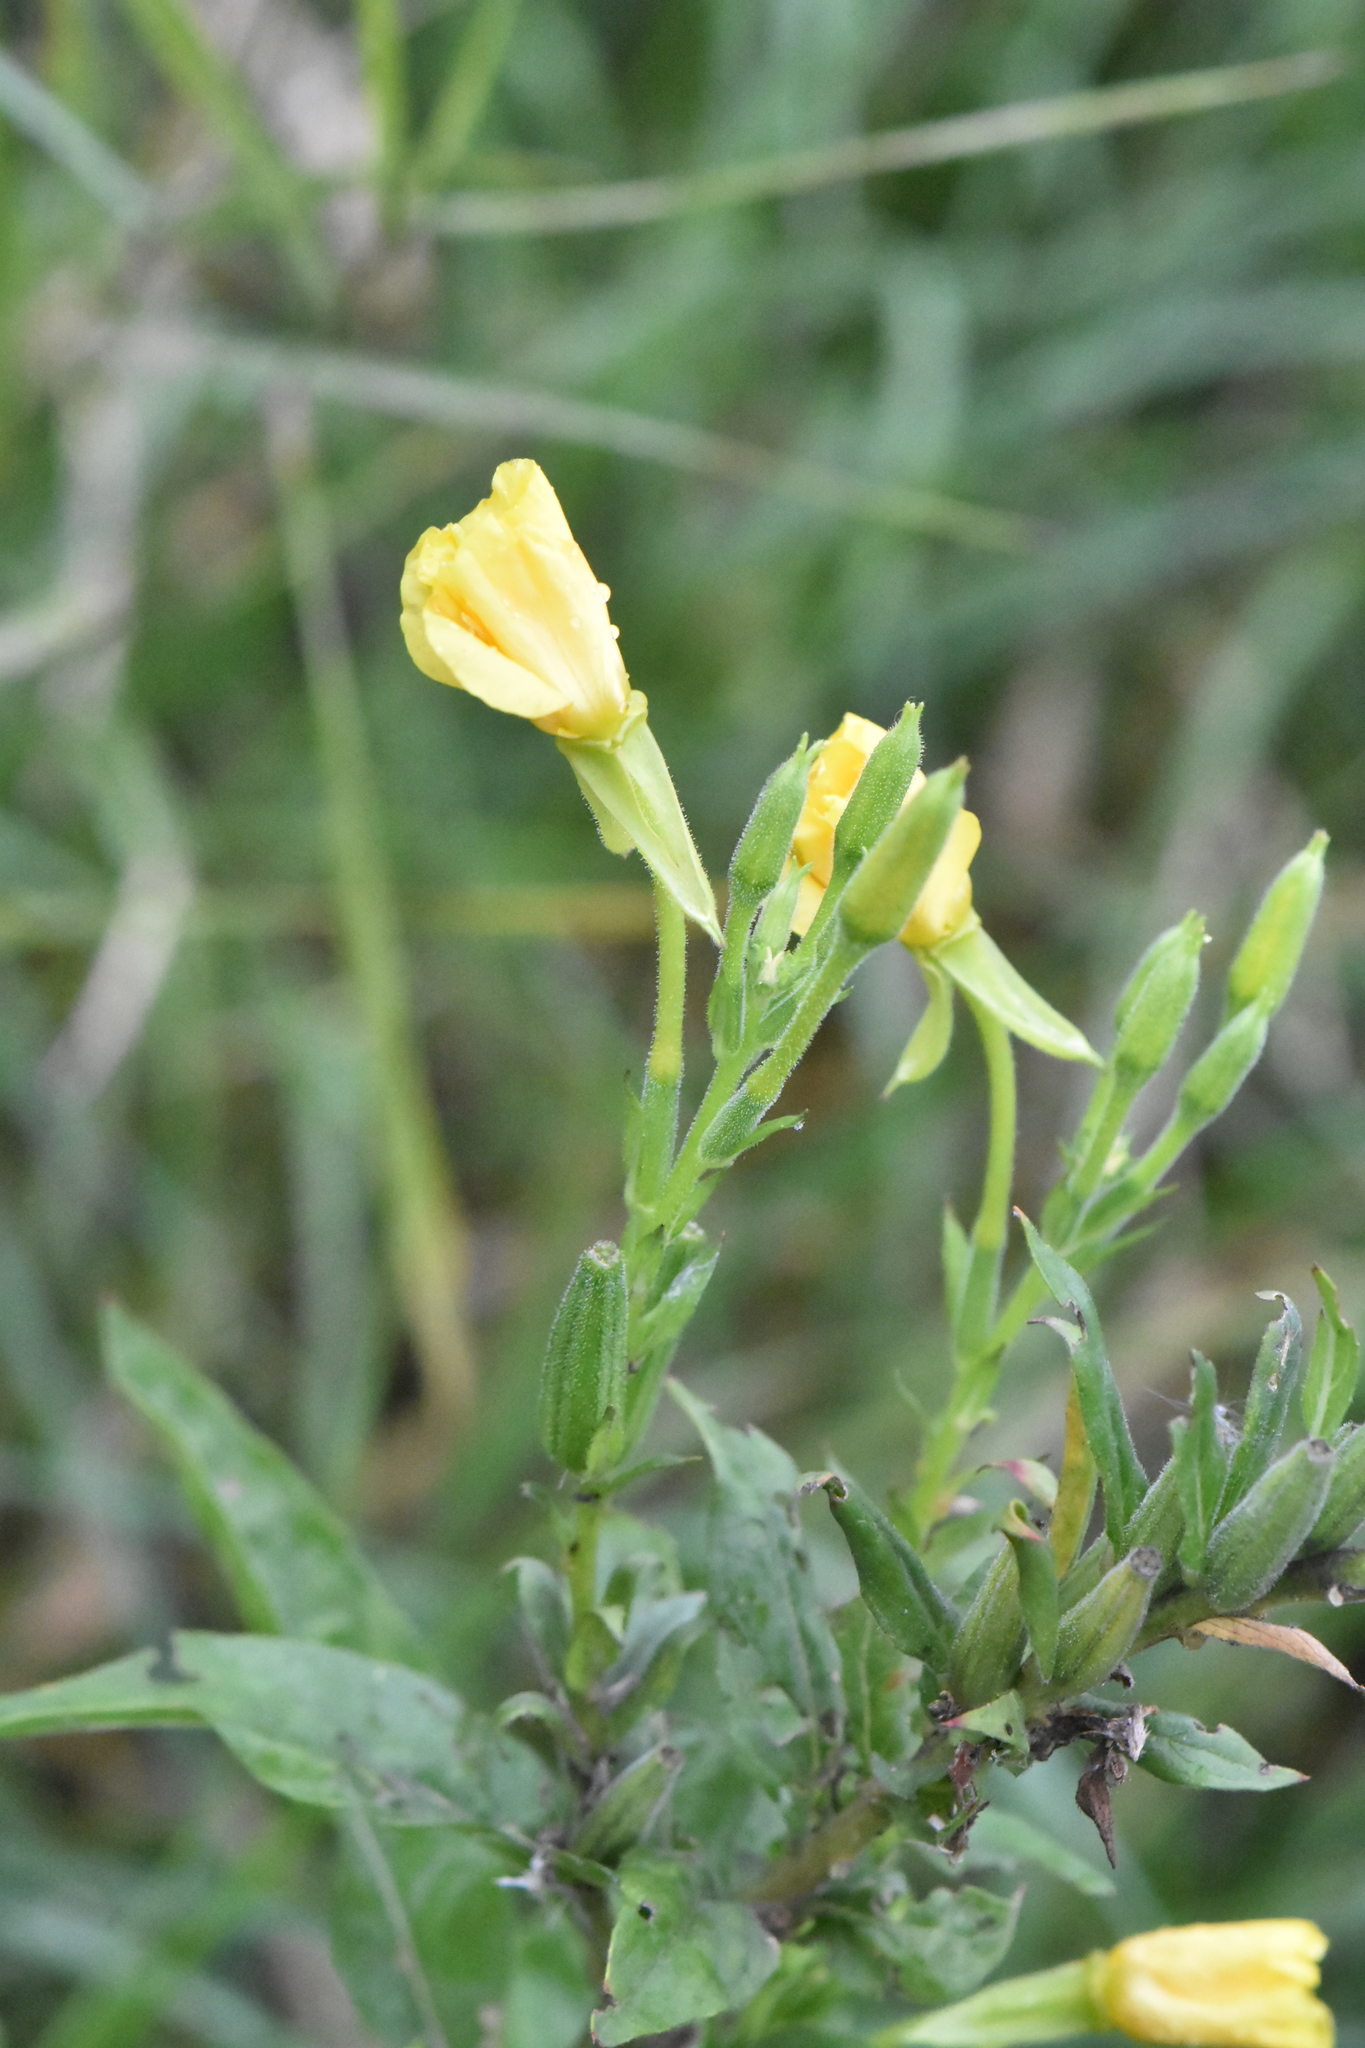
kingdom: Plantae
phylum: Tracheophyta
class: Magnoliopsida
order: Myrtales
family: Onagraceae
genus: Oenothera
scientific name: Oenothera biennis
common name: Common evening-primrose
